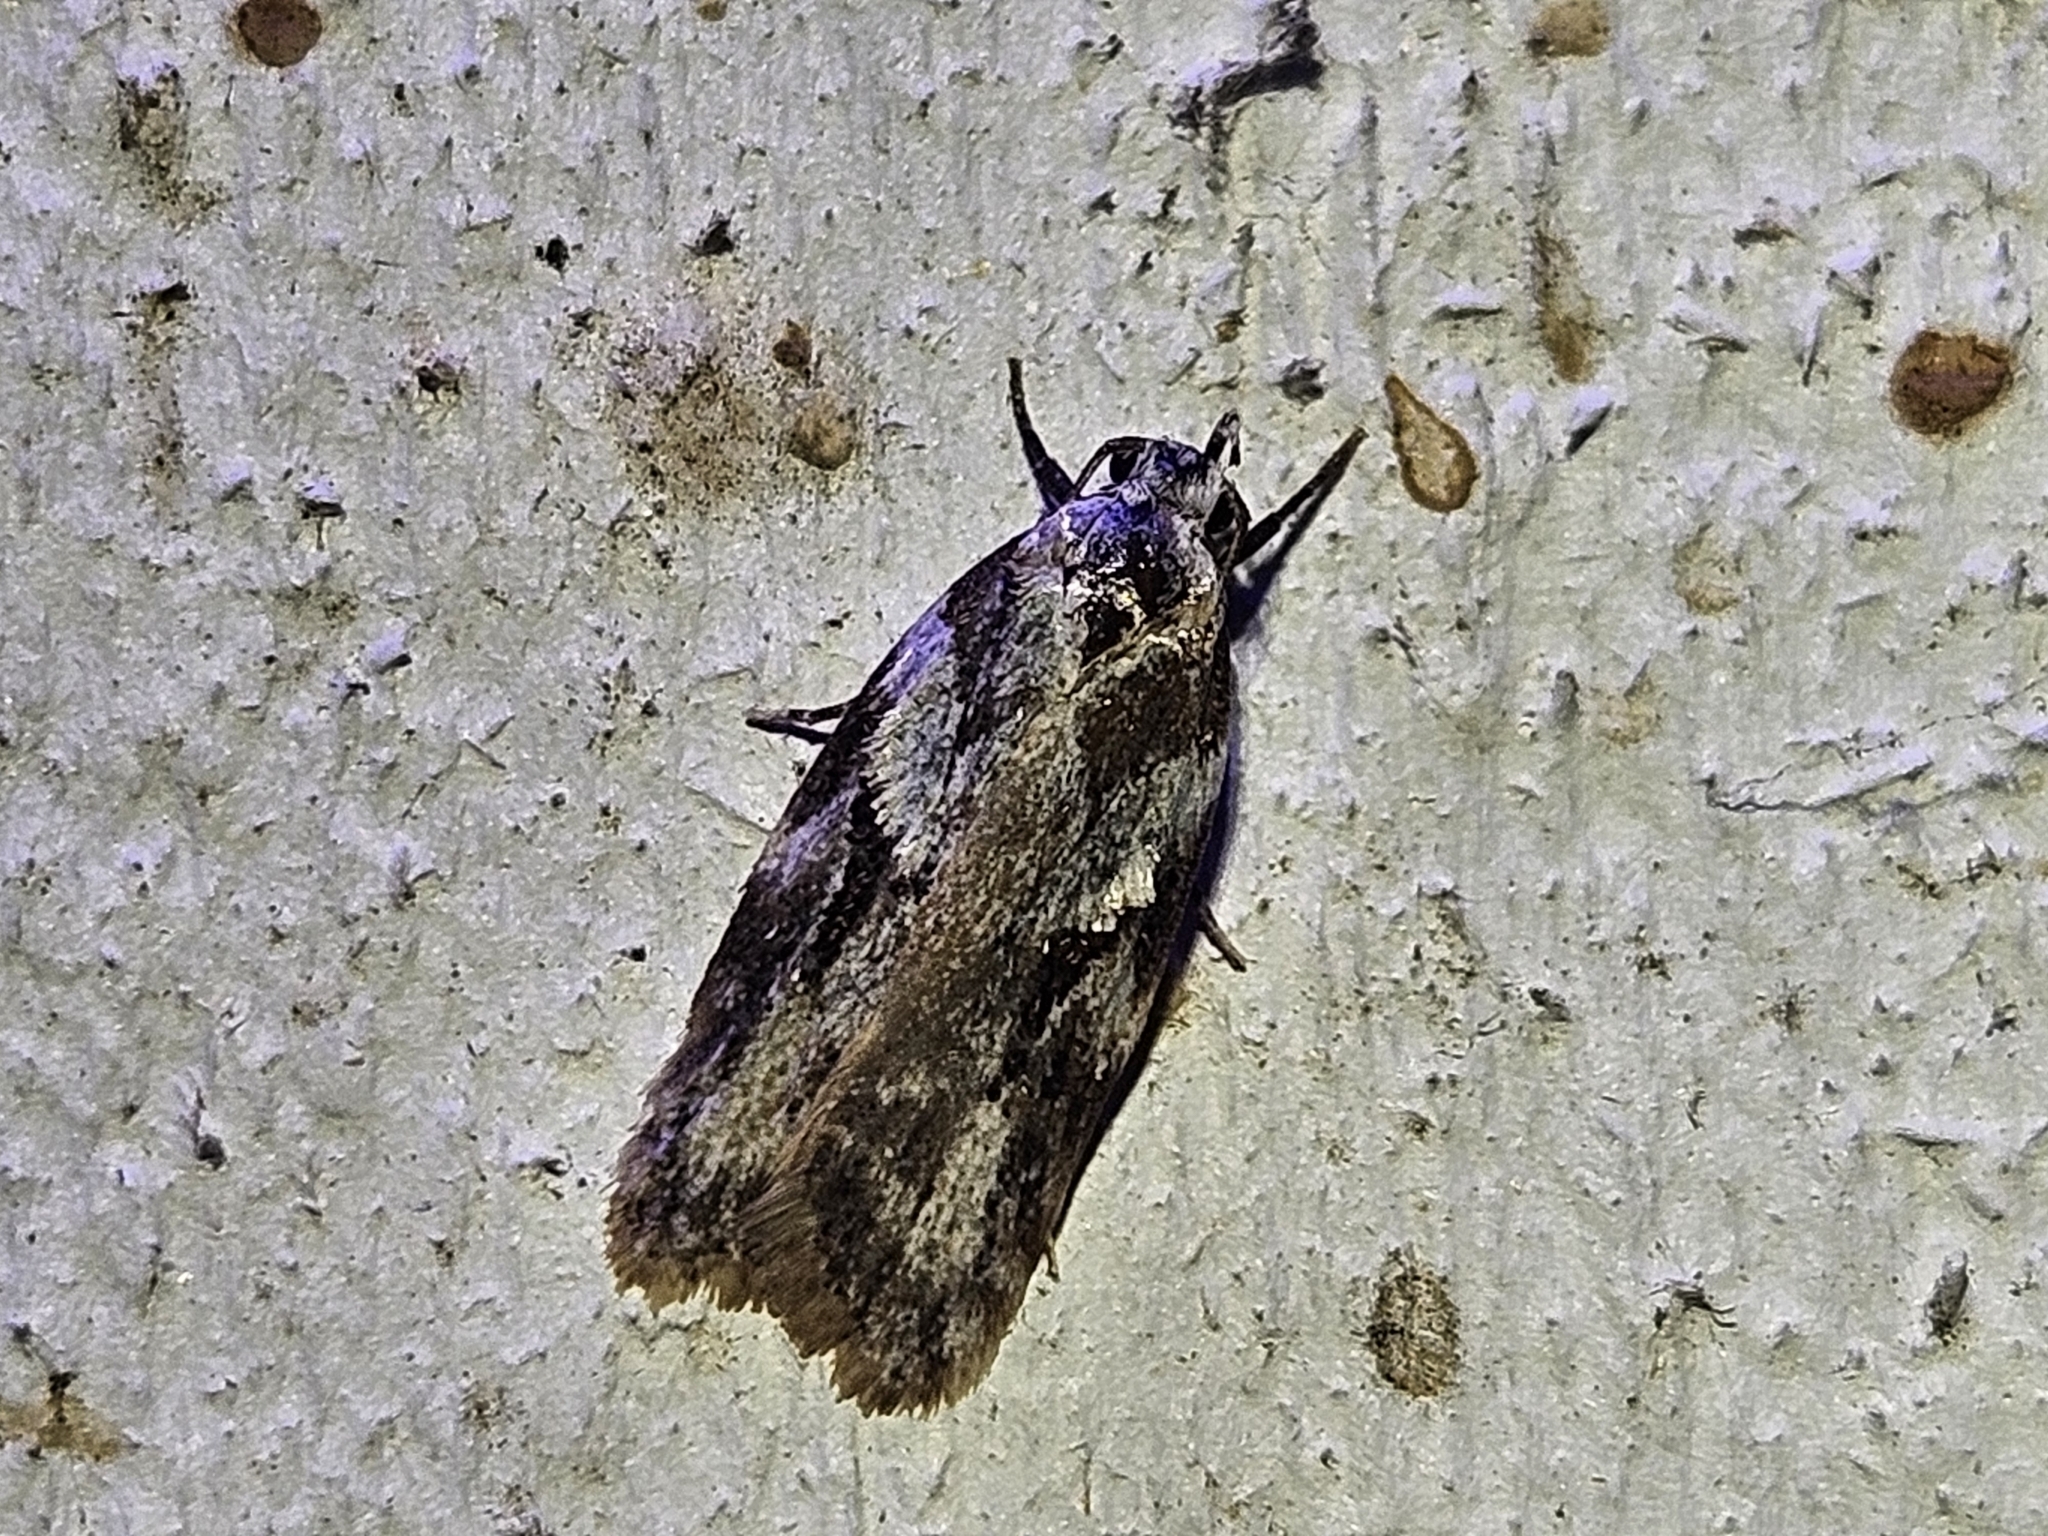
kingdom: Animalia
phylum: Arthropoda
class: Insecta
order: Lepidoptera
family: Oecophoridae
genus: Izatha
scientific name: Izatha mesoschista
